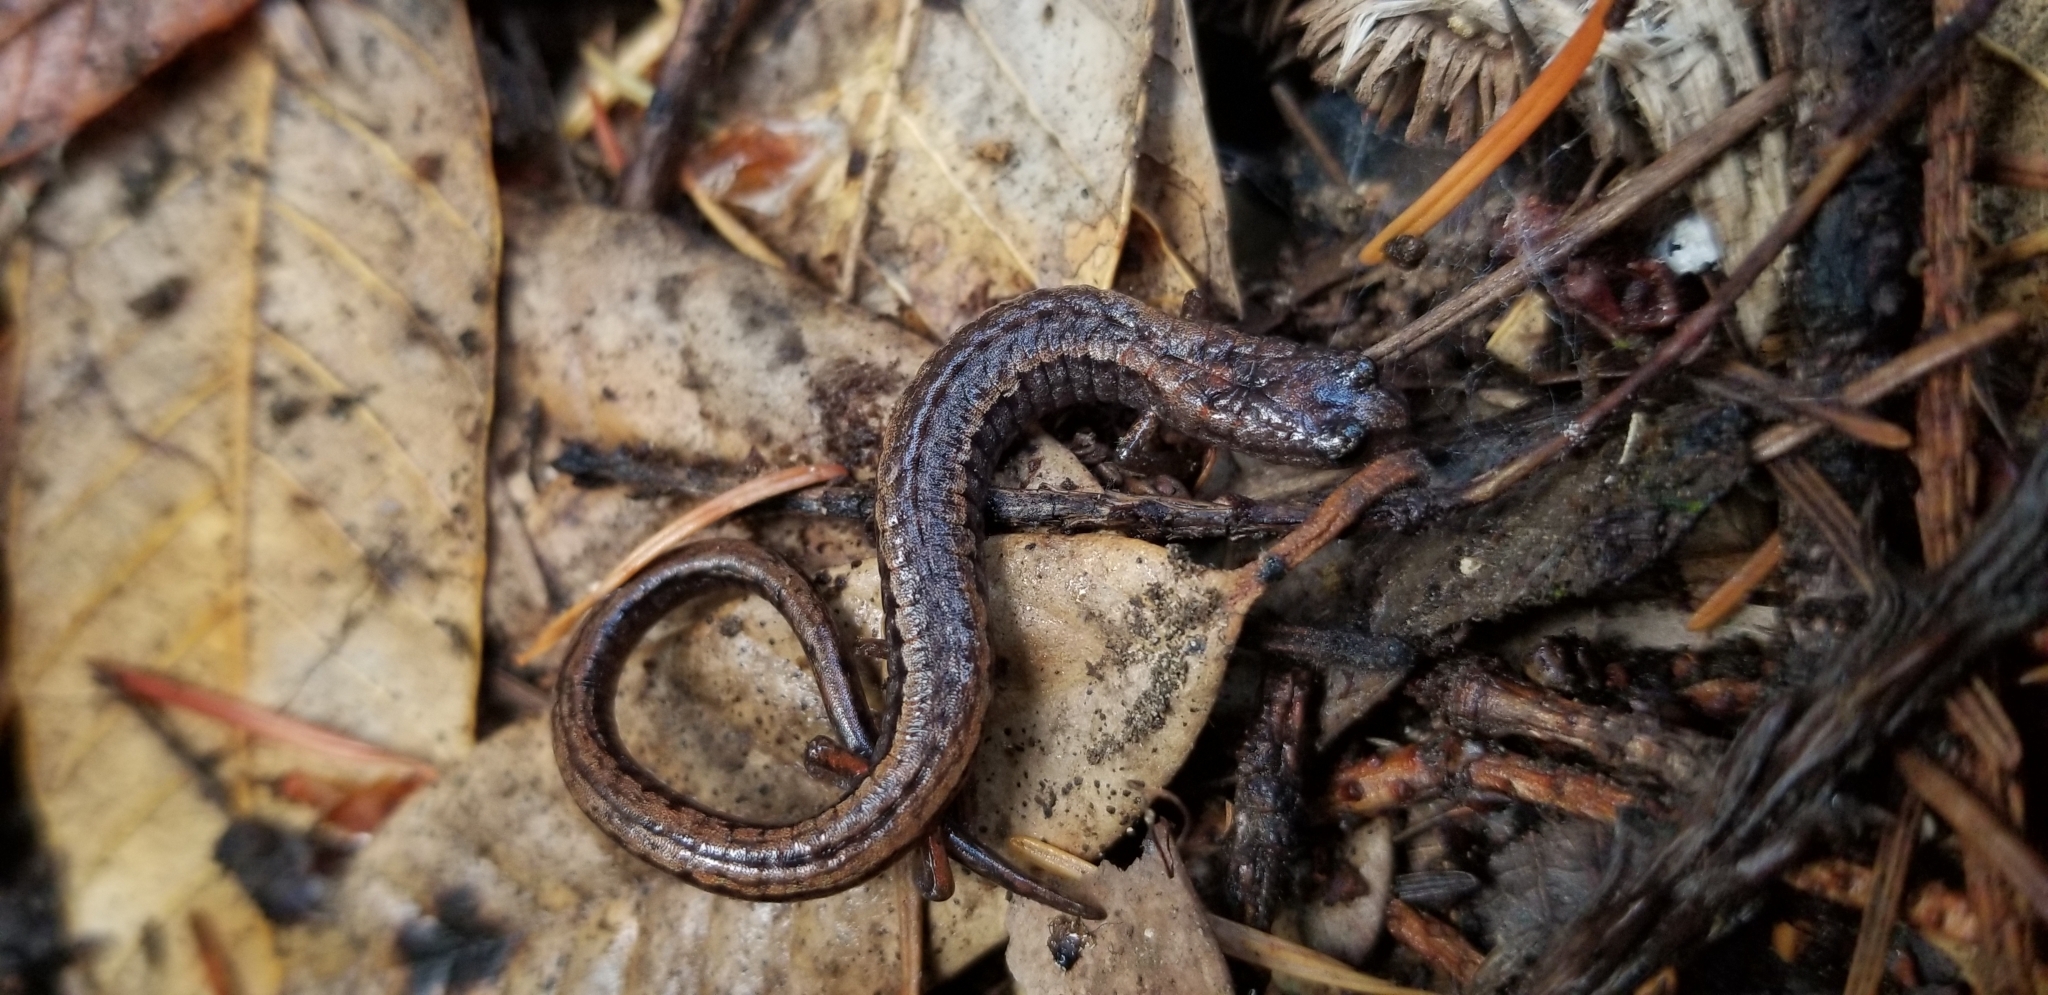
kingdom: Animalia
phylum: Chordata
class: Amphibia
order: Caudata
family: Plethodontidae
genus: Batrachoseps
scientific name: Batrachoseps attenuatus
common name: California slender salamander
